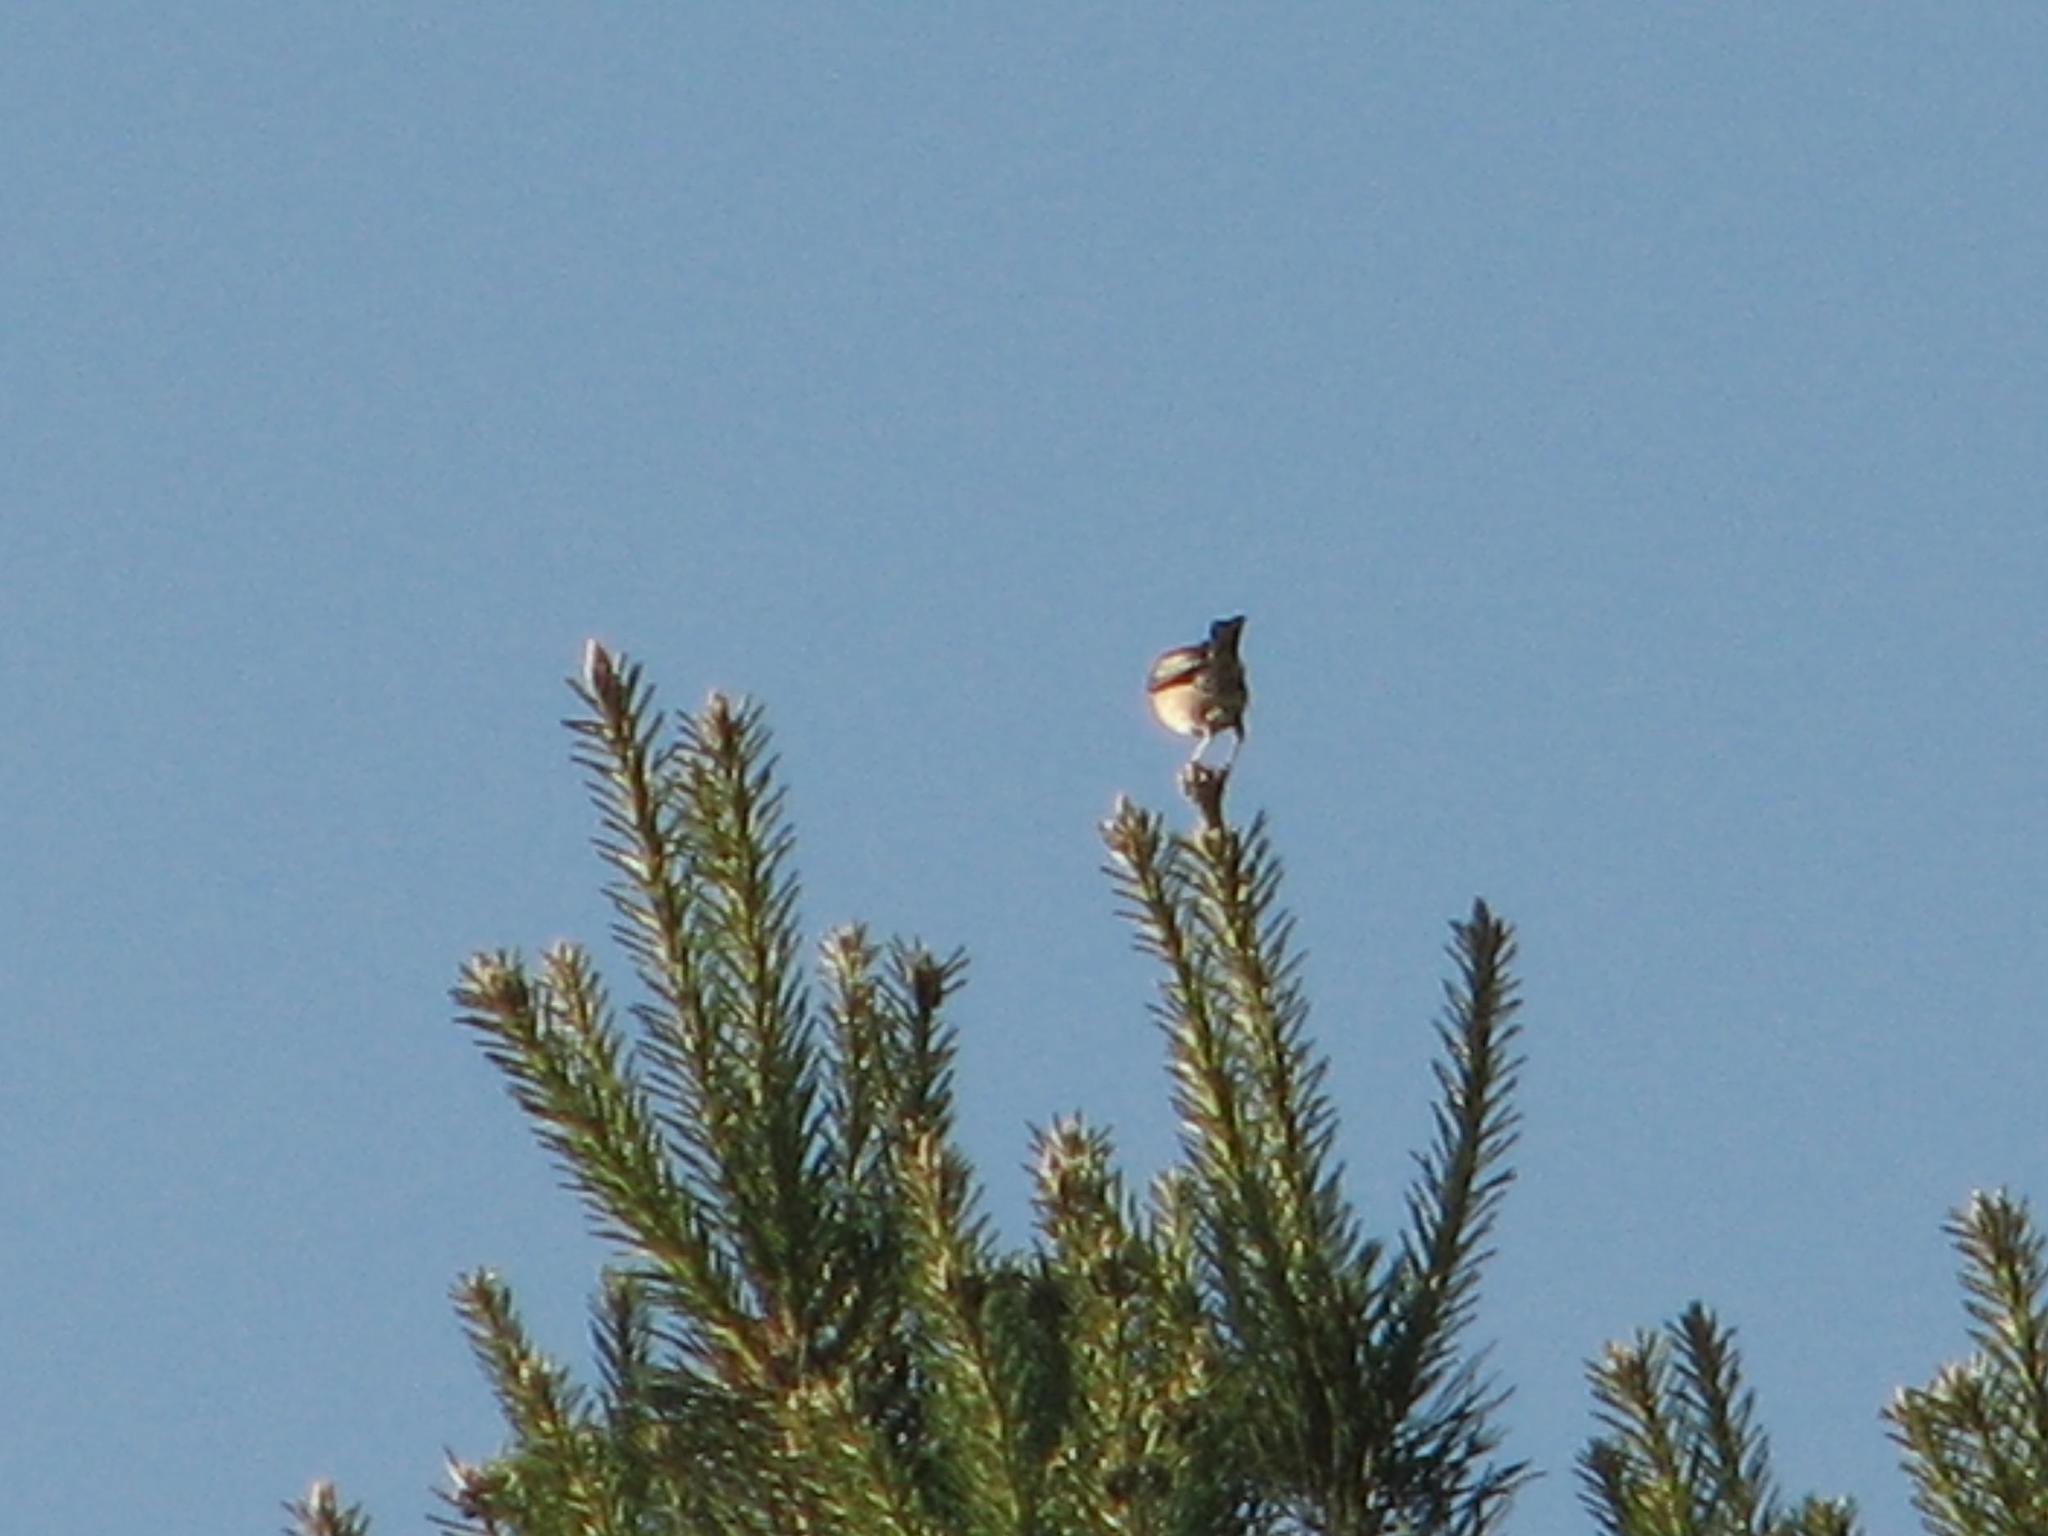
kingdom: Animalia
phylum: Chordata
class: Aves
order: Passeriformes
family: Muscicapidae
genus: Ficedula
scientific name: Ficedula hypoleuca
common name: European pied flycatcher
